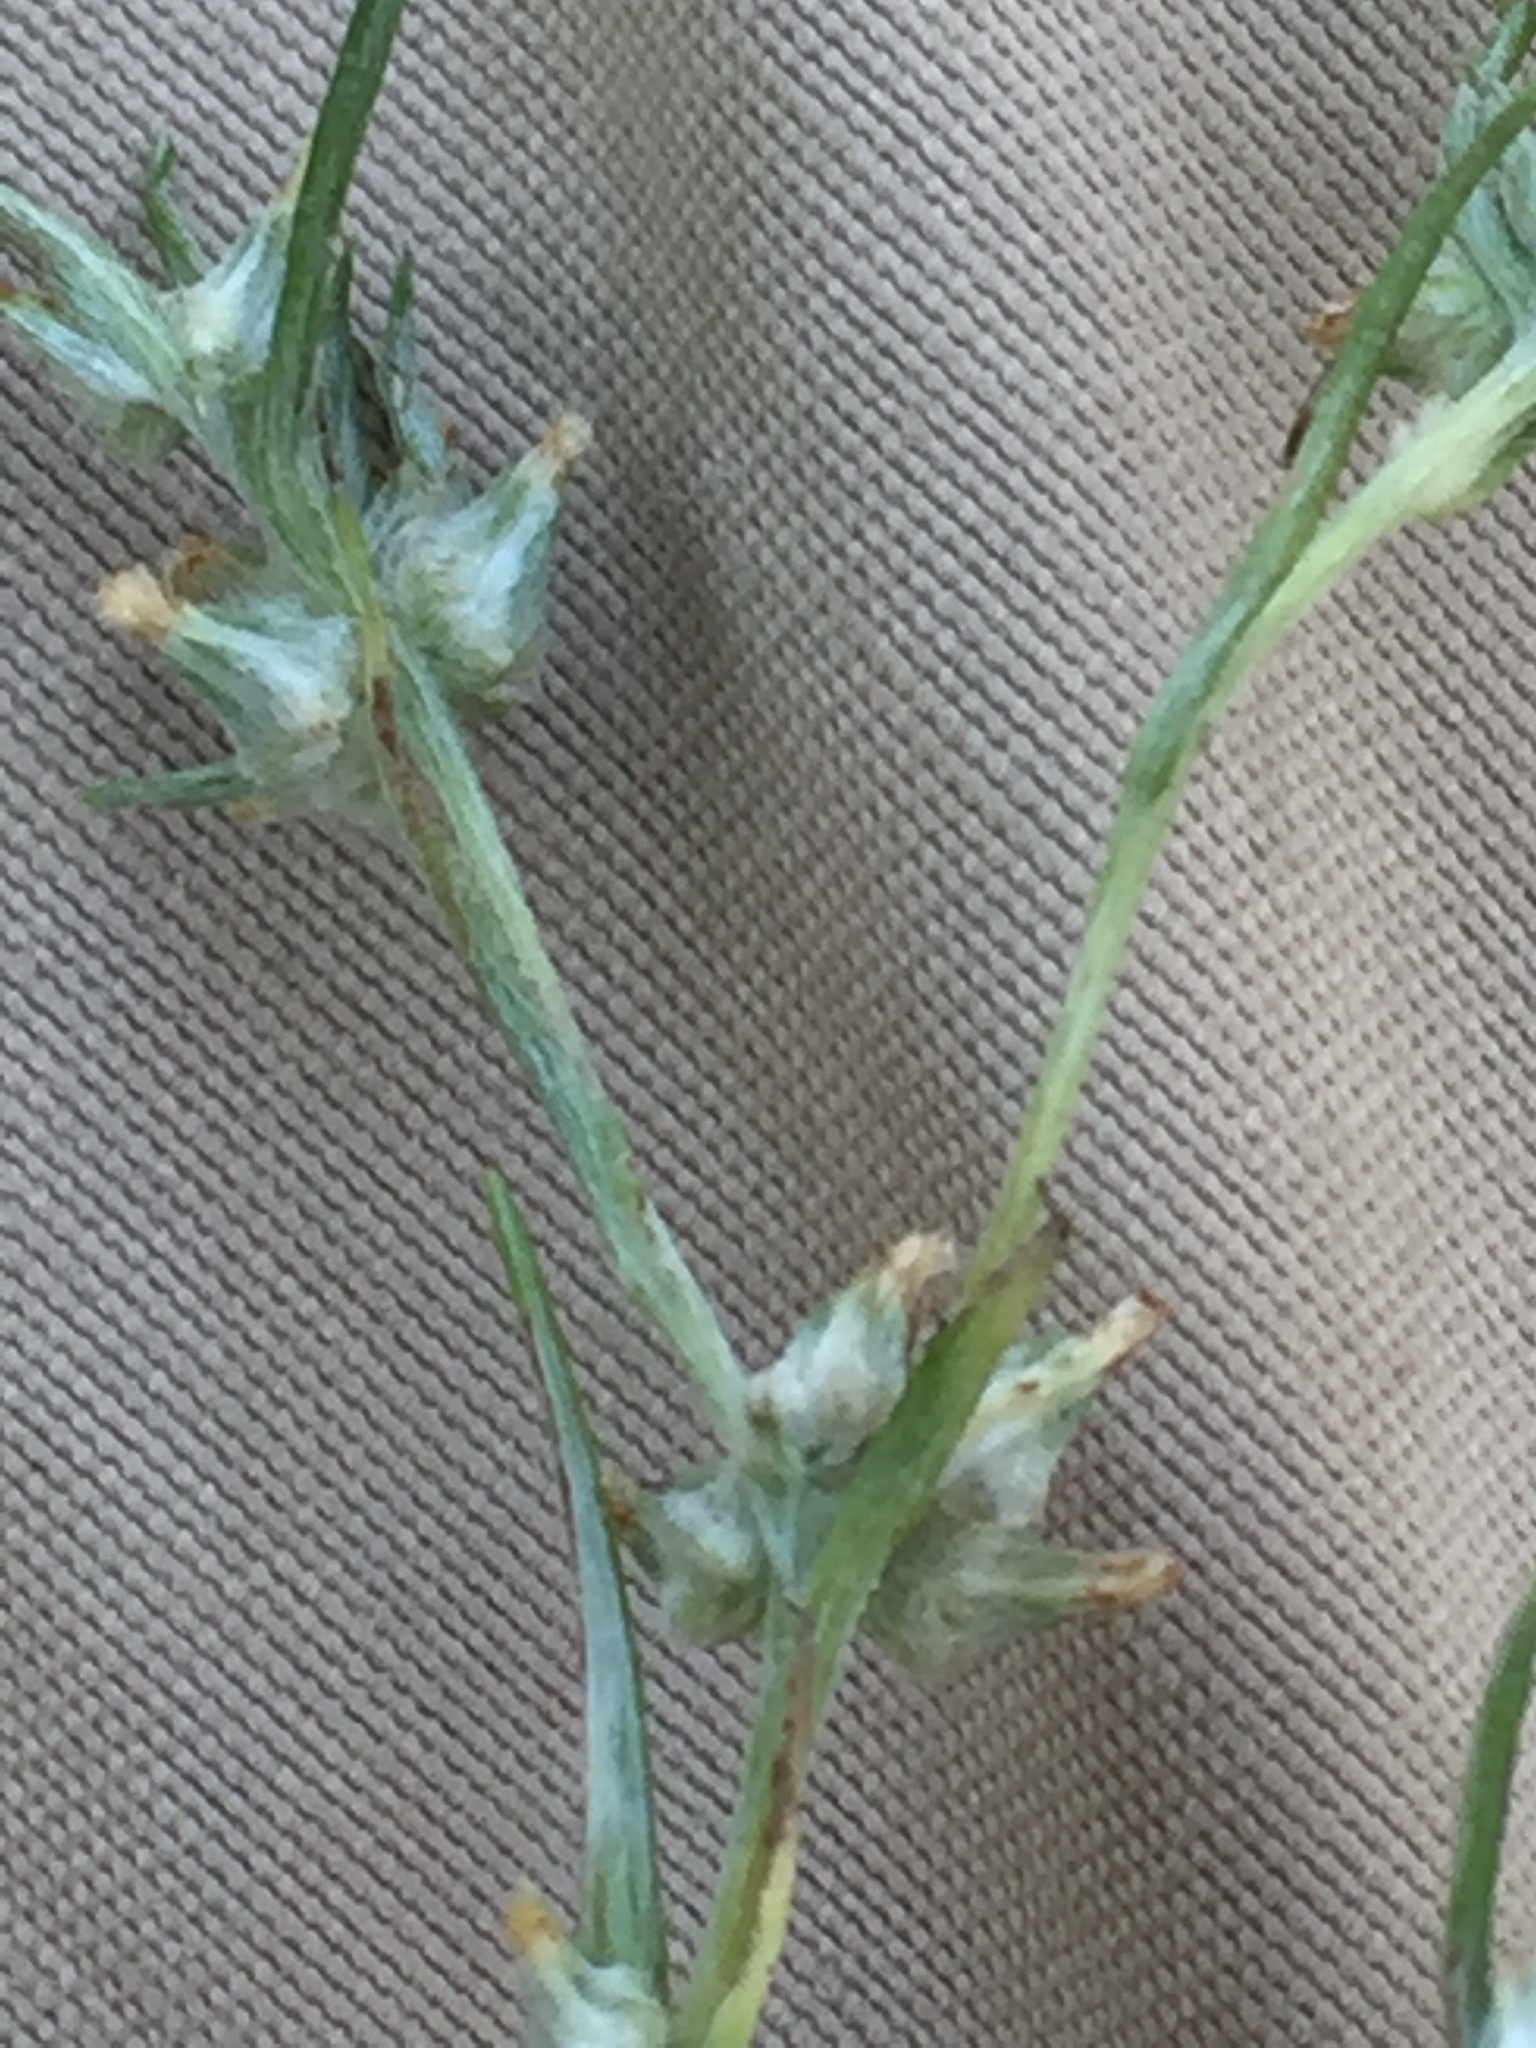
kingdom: Plantae
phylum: Tracheophyta
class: Magnoliopsida
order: Asterales
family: Asteraceae
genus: Logfia
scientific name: Logfia gallica
